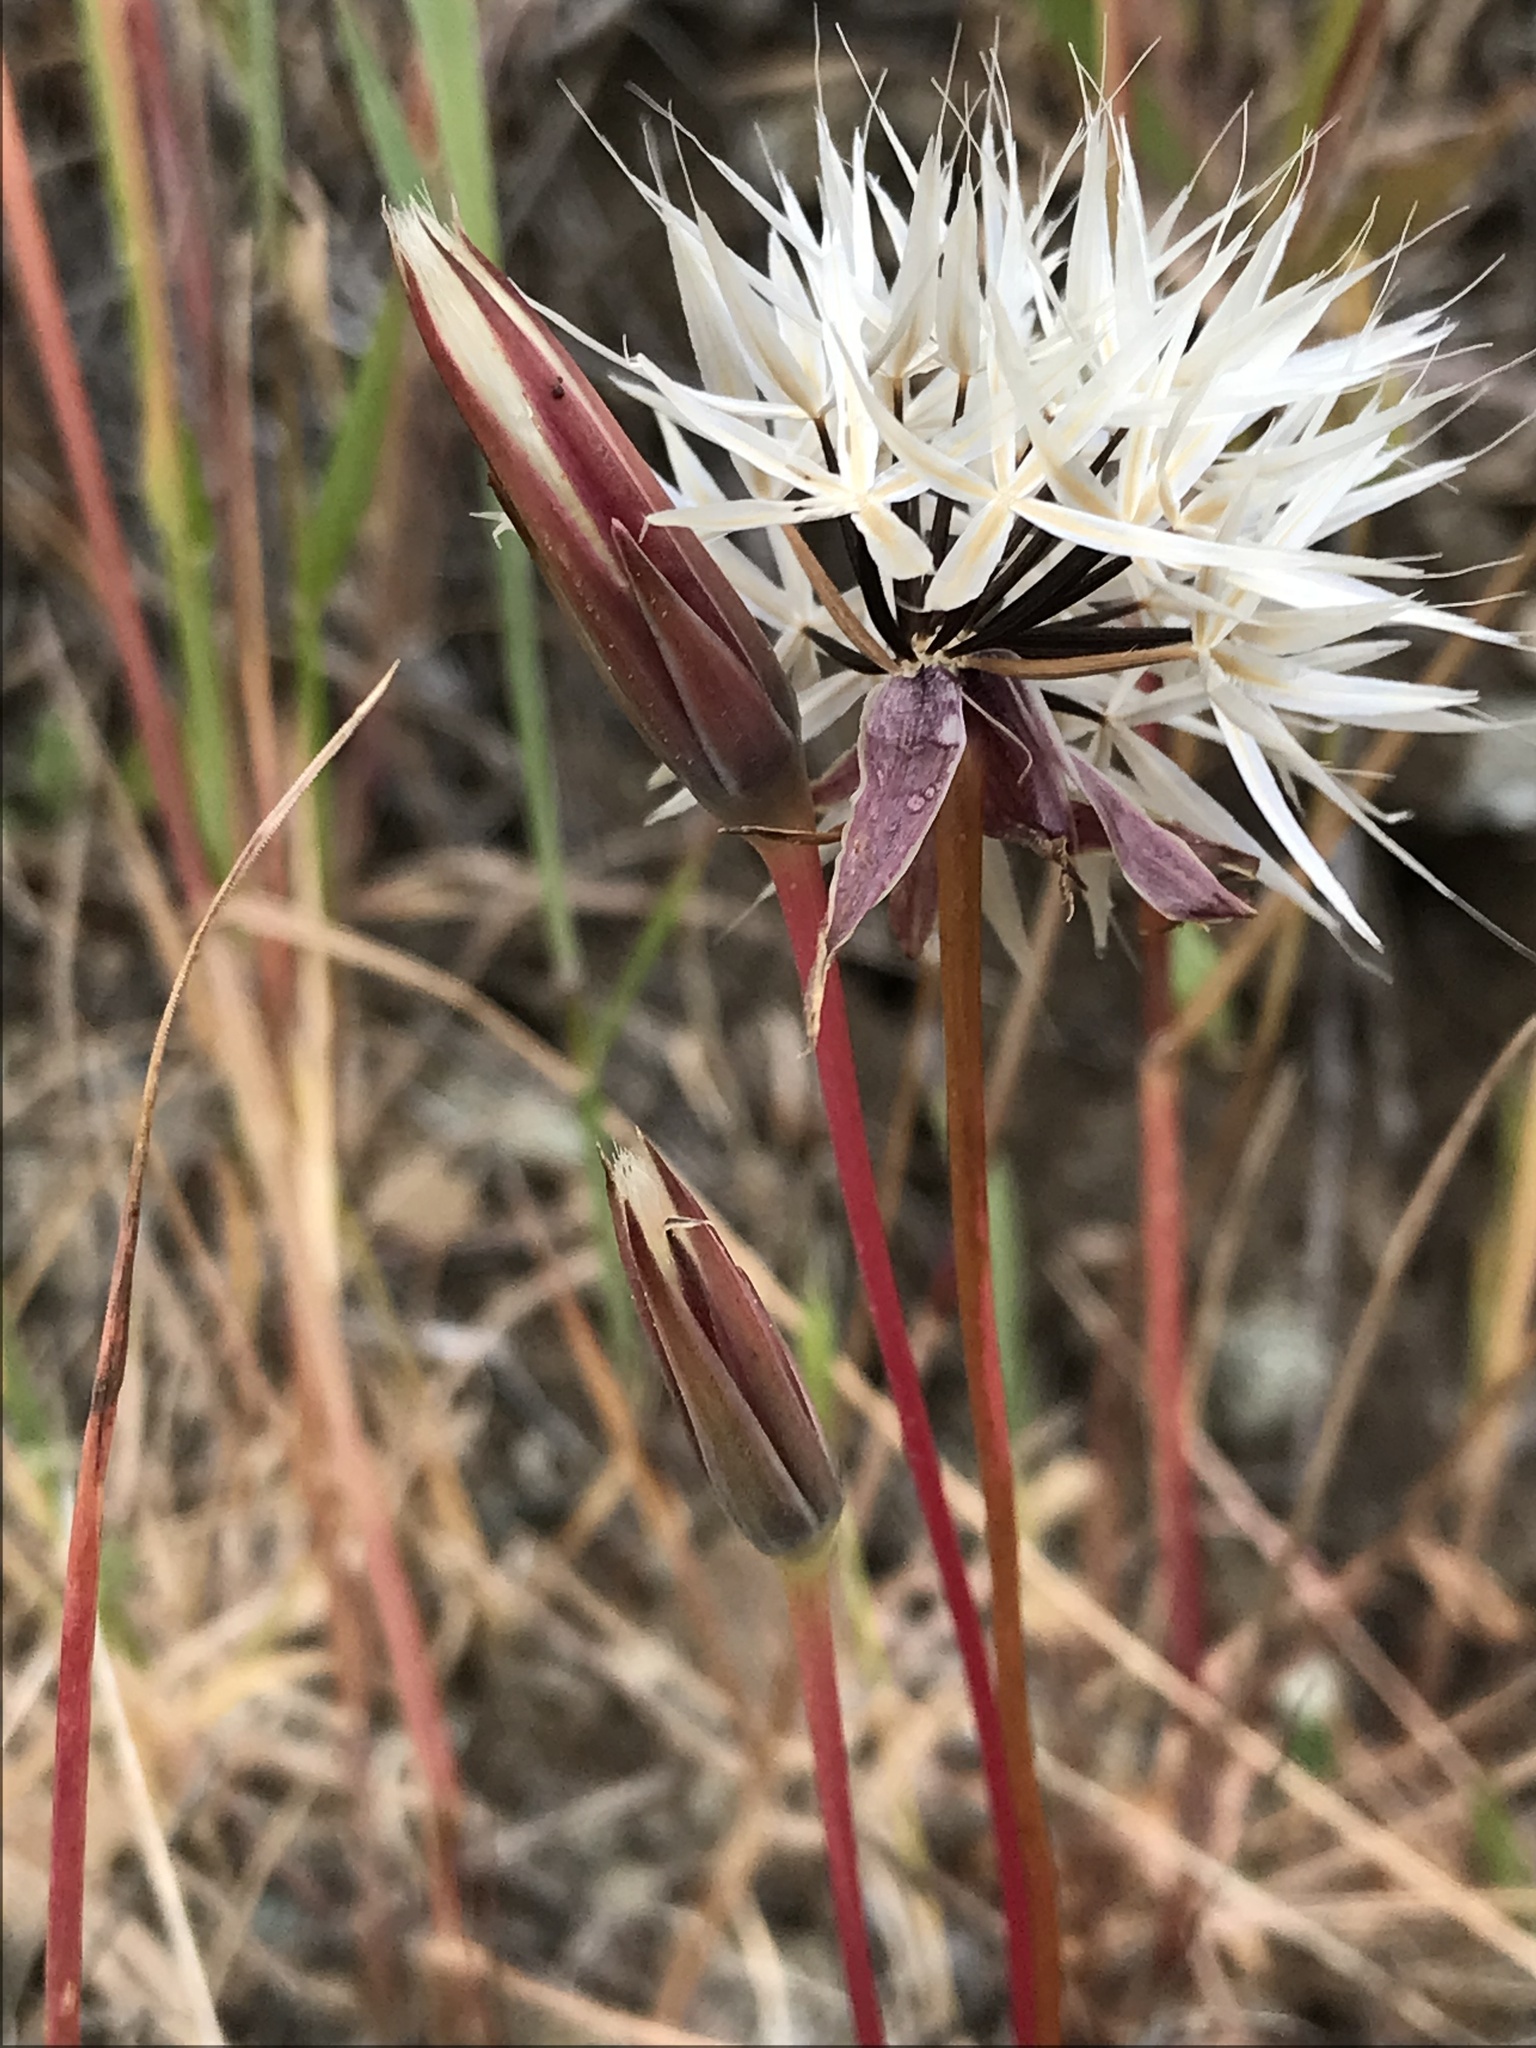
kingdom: Plantae
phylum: Tracheophyta
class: Magnoliopsida
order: Asterales
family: Asteraceae
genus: Microseris
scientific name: Microseris lindleyi
